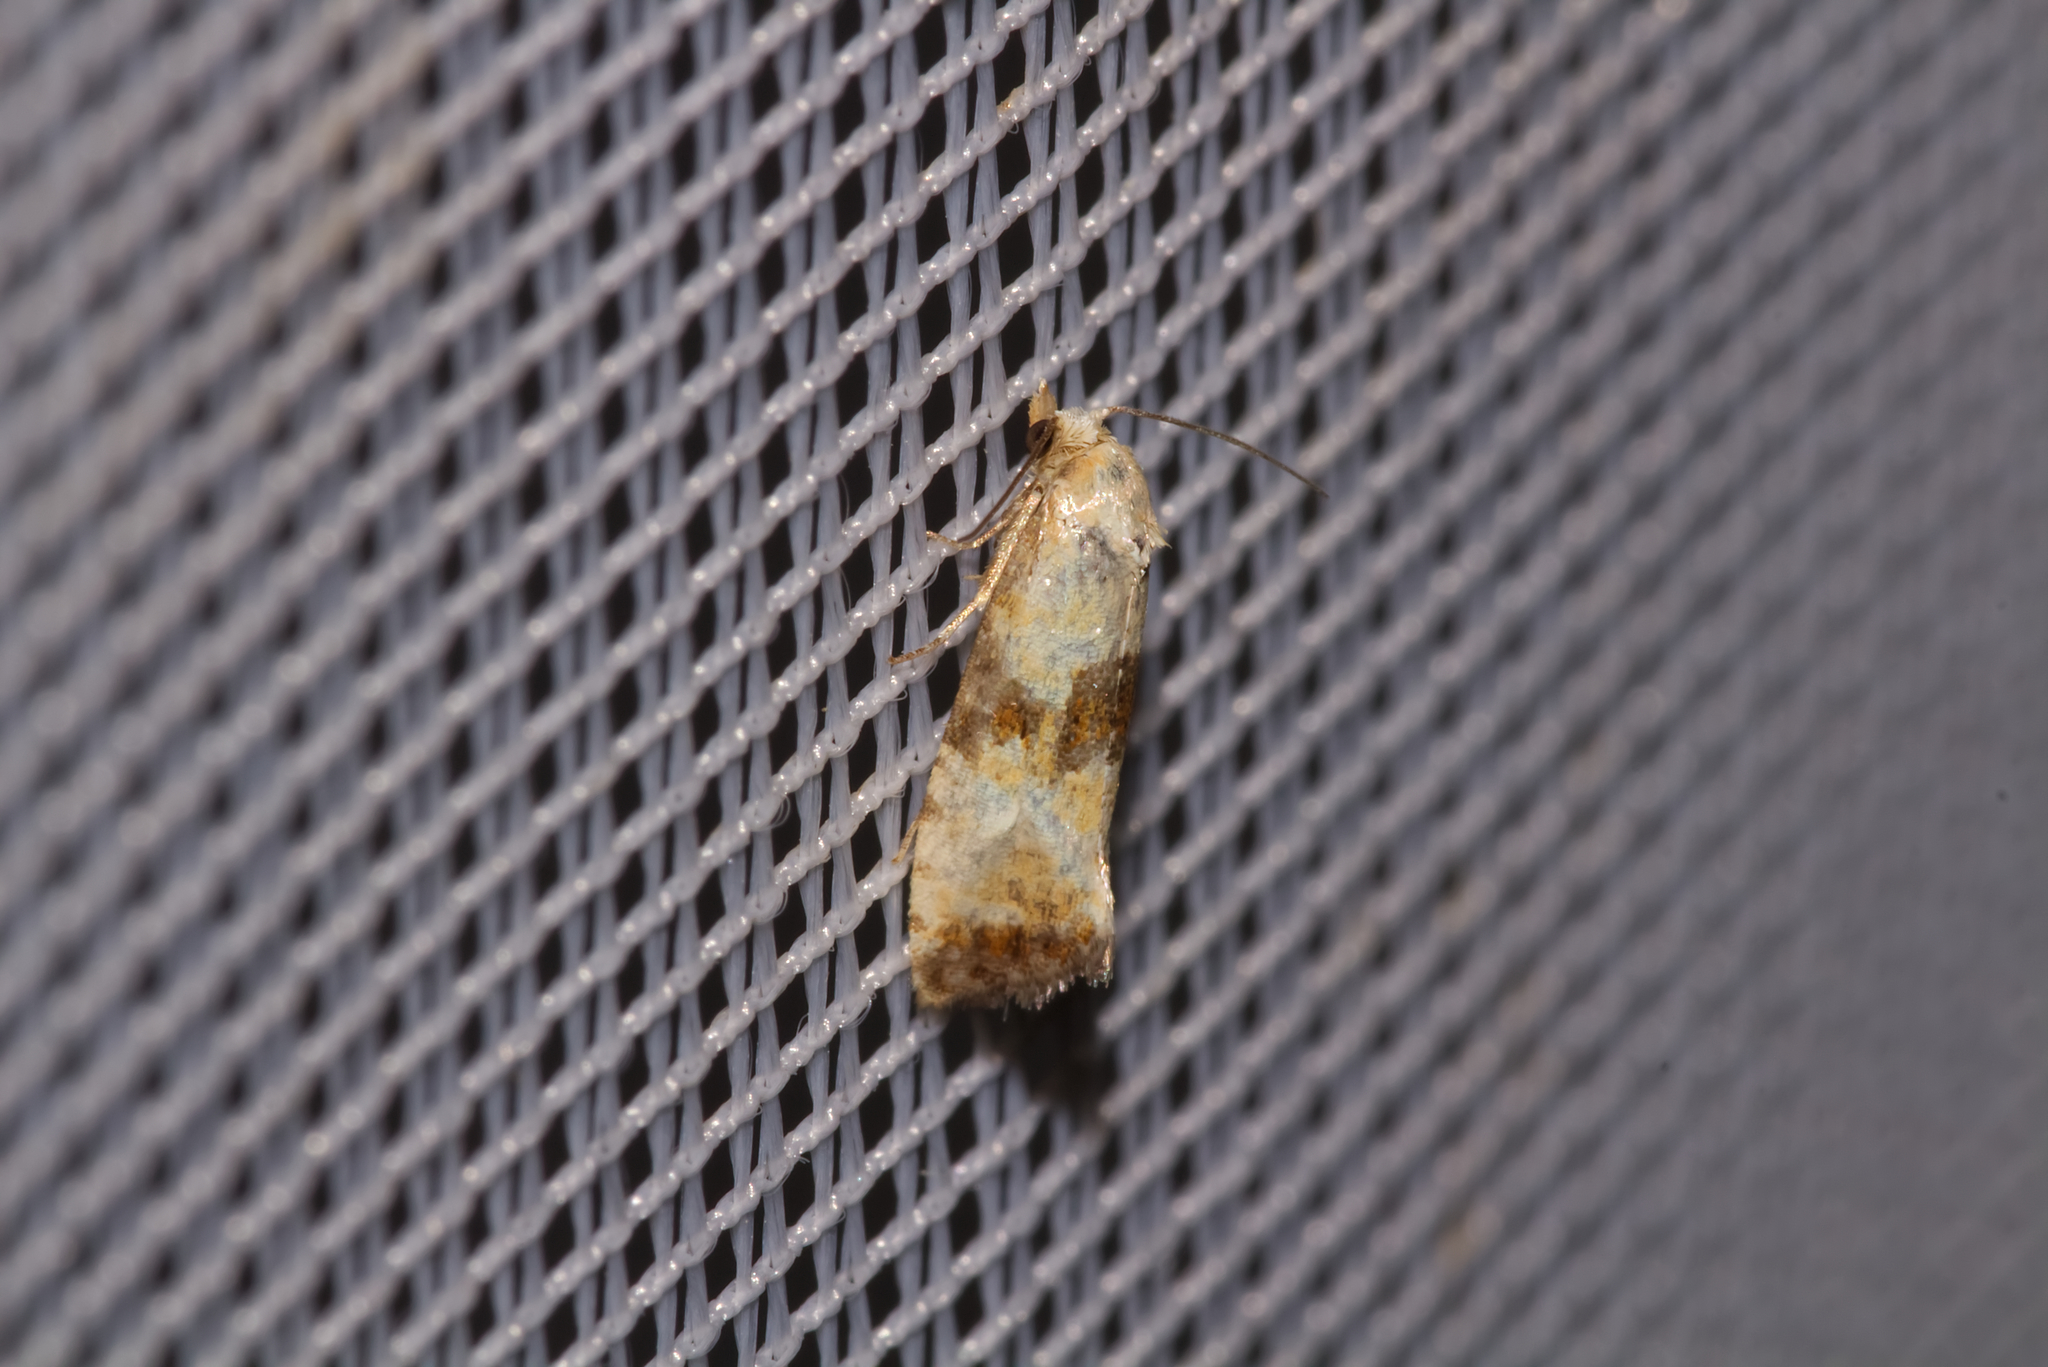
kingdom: Animalia
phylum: Arthropoda
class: Insecta
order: Lepidoptera
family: Tortricidae
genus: Eupoecilia
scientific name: Eupoecilia angustana
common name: Marbled conch
